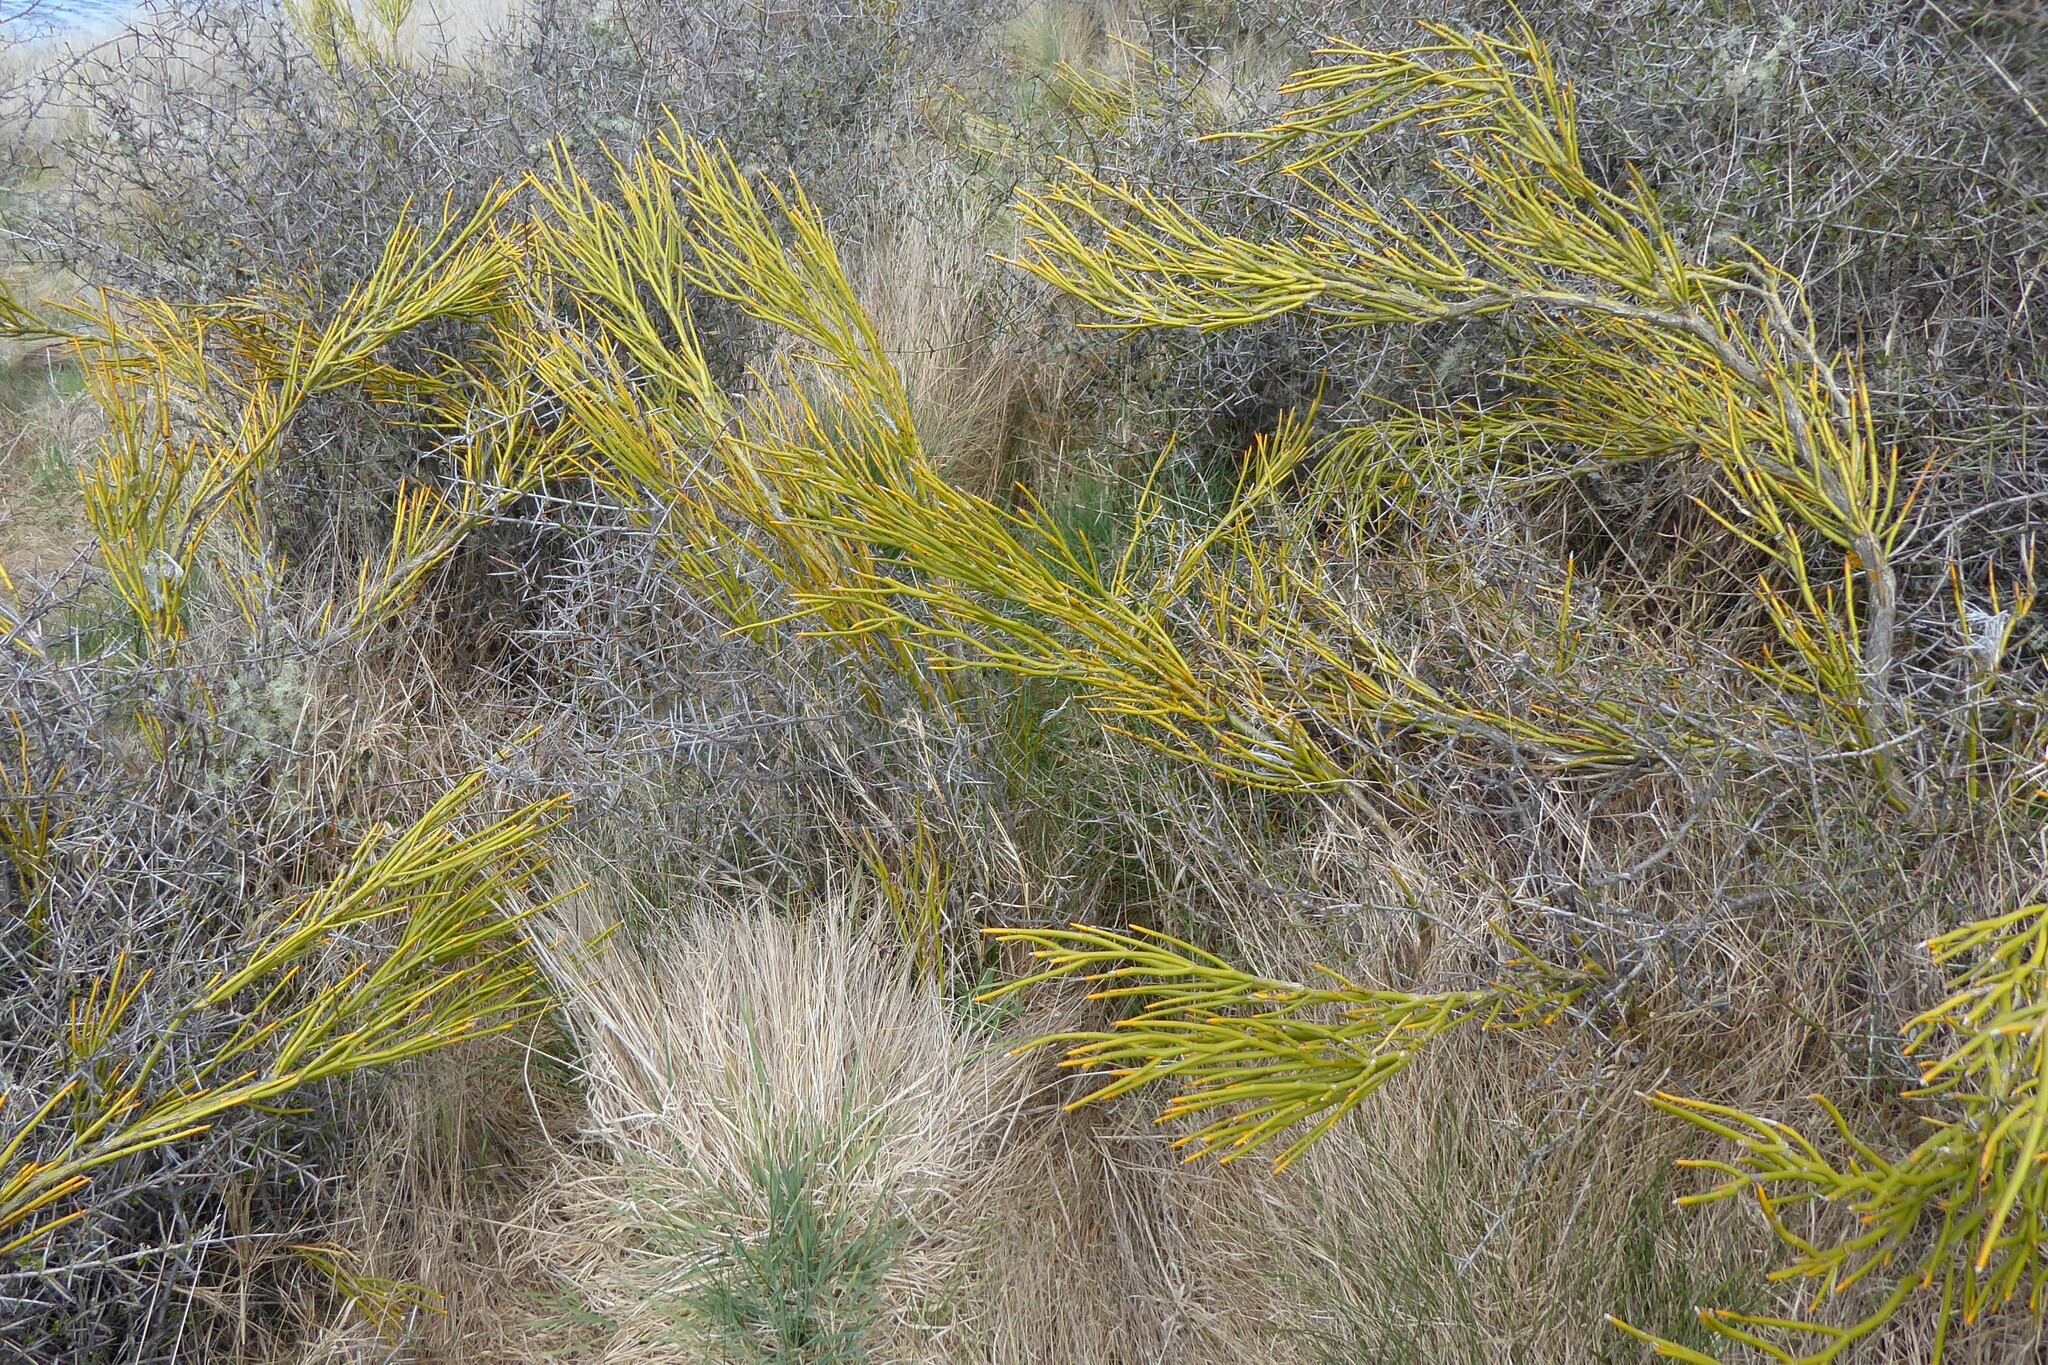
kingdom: Plantae
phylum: Tracheophyta
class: Magnoliopsida
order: Fabales
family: Fabaceae
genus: Carmichaelia
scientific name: Carmichaelia petriei
